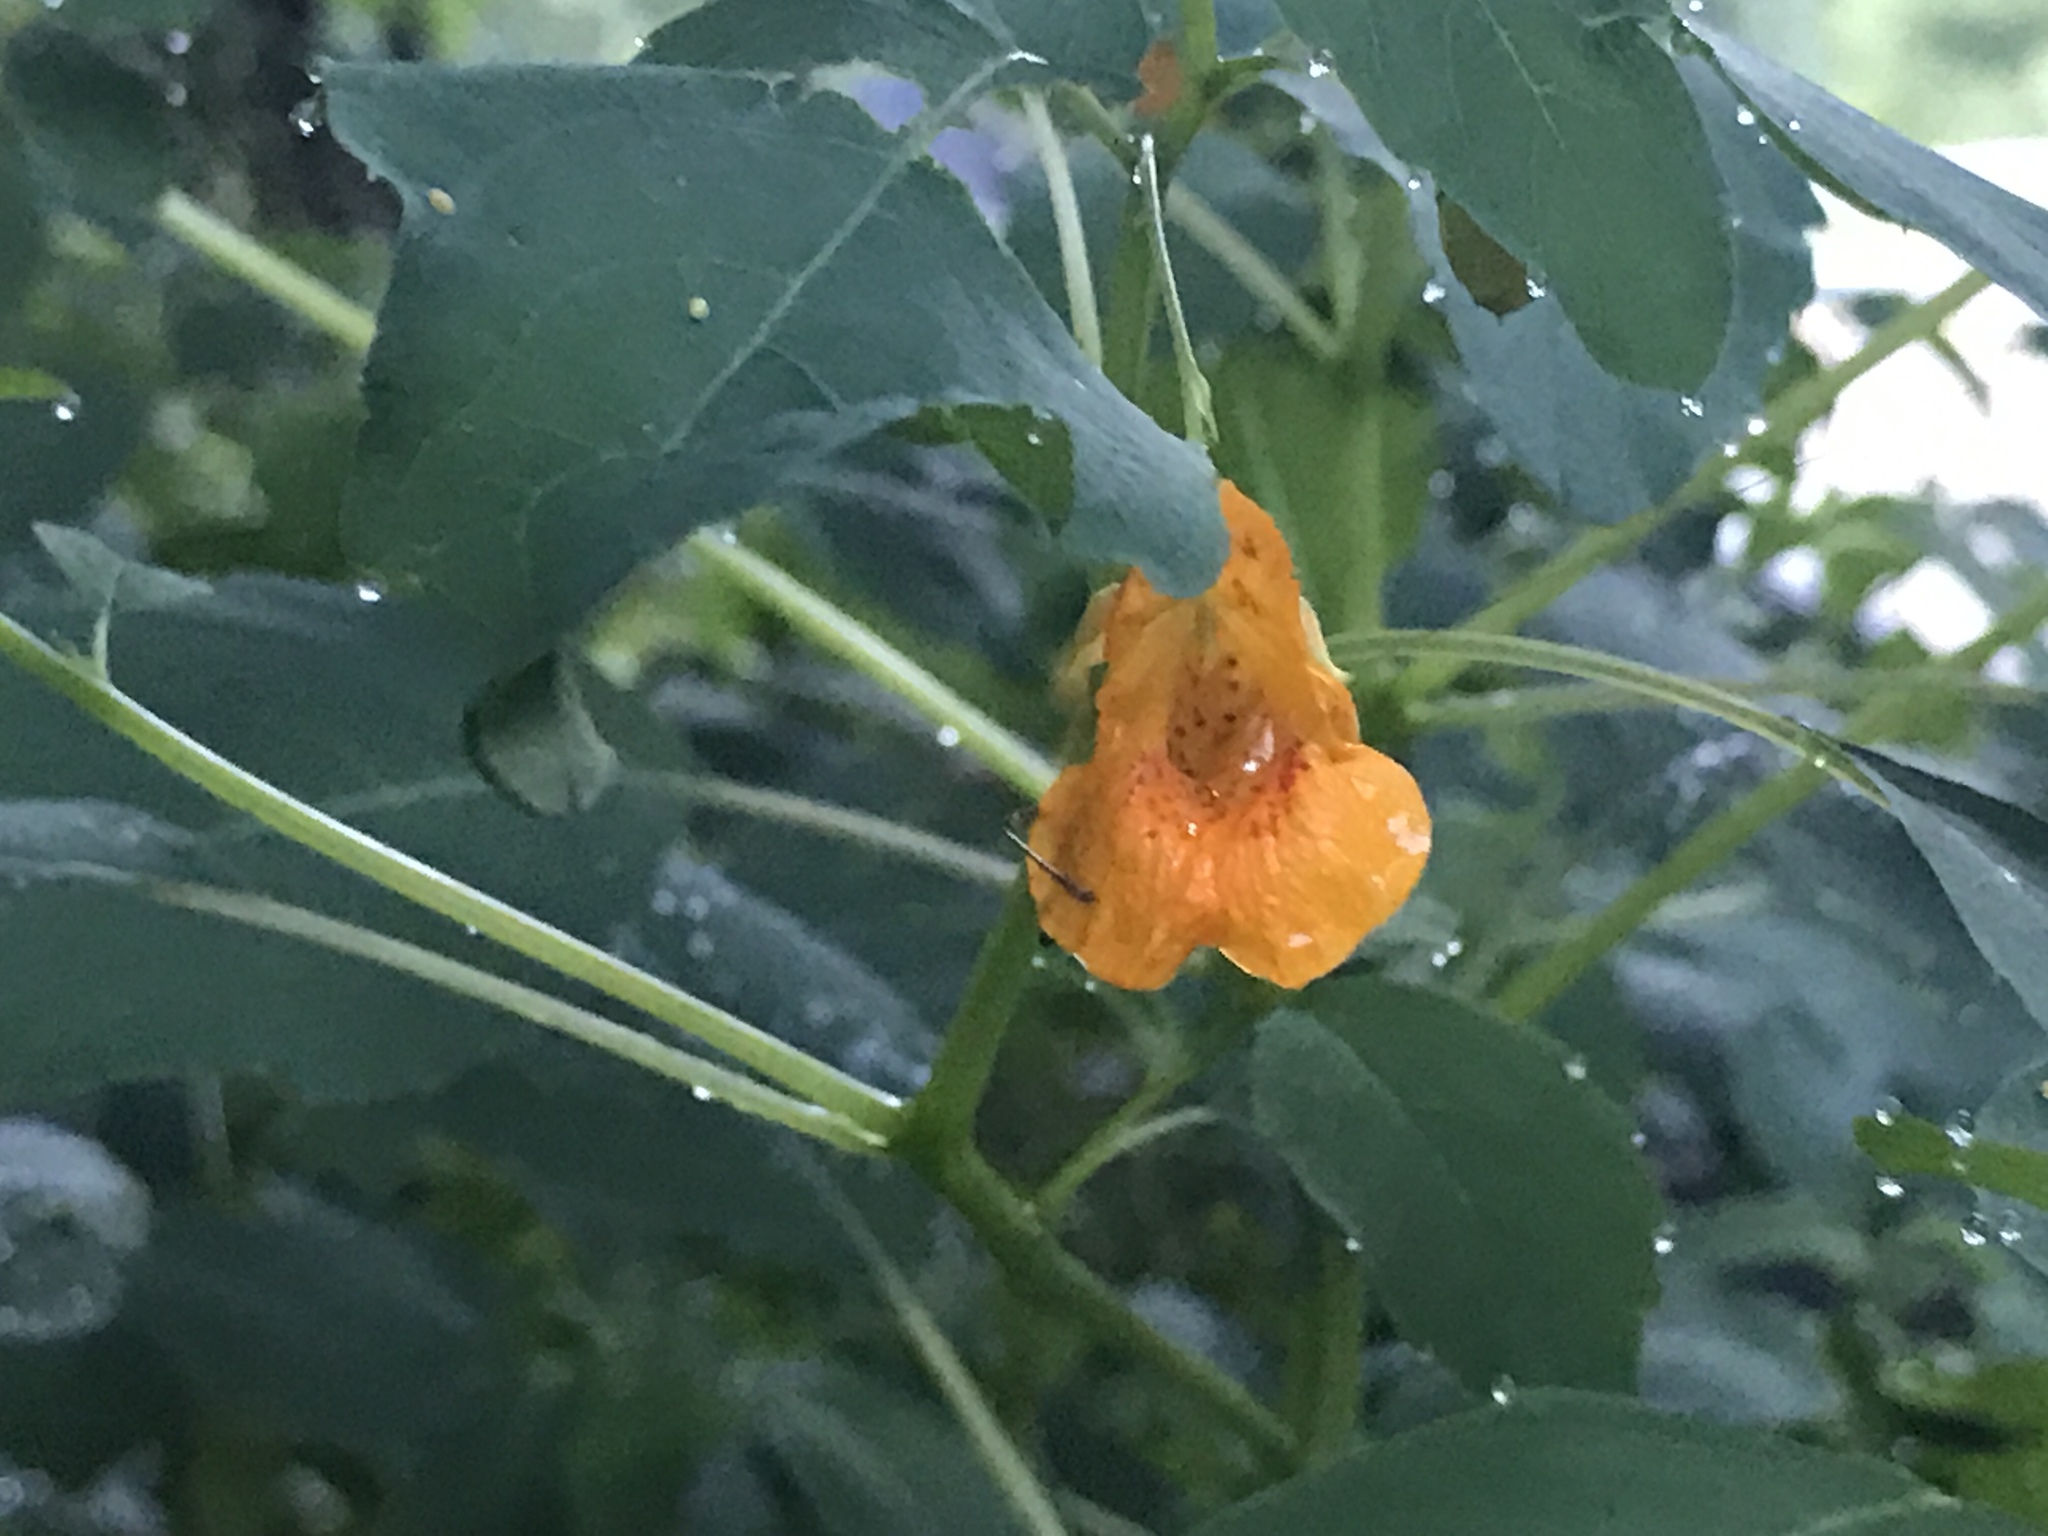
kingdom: Plantae
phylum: Tracheophyta
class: Magnoliopsida
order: Ericales
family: Balsaminaceae
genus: Impatiens
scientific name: Impatiens capensis
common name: Orange balsam
